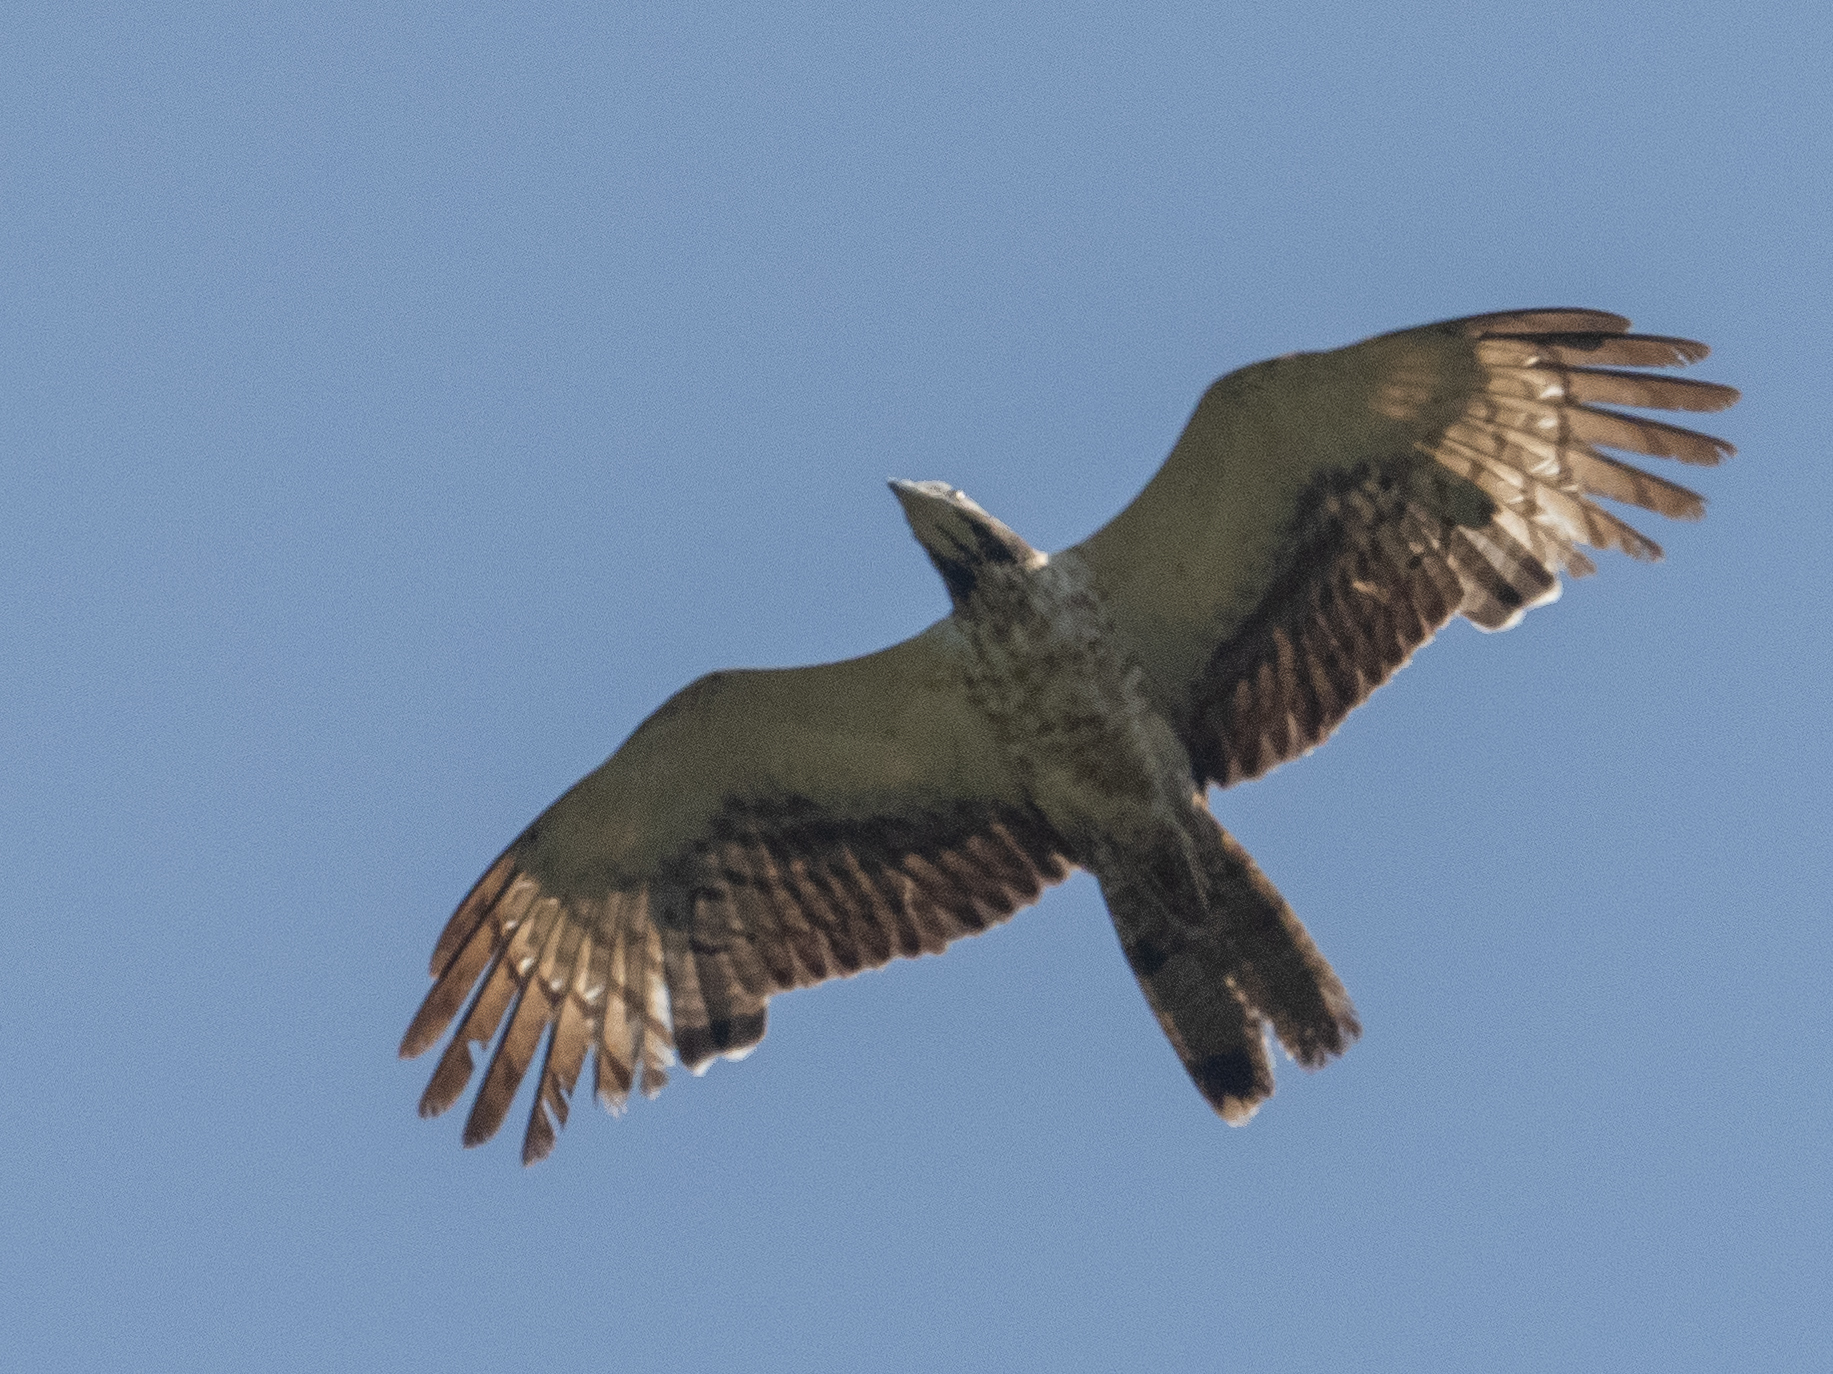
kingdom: Animalia
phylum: Chordata
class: Aves
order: Accipitriformes
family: Accipitridae
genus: Pernis
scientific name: Pernis ptilorhynchus
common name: Crested honey buzzard
